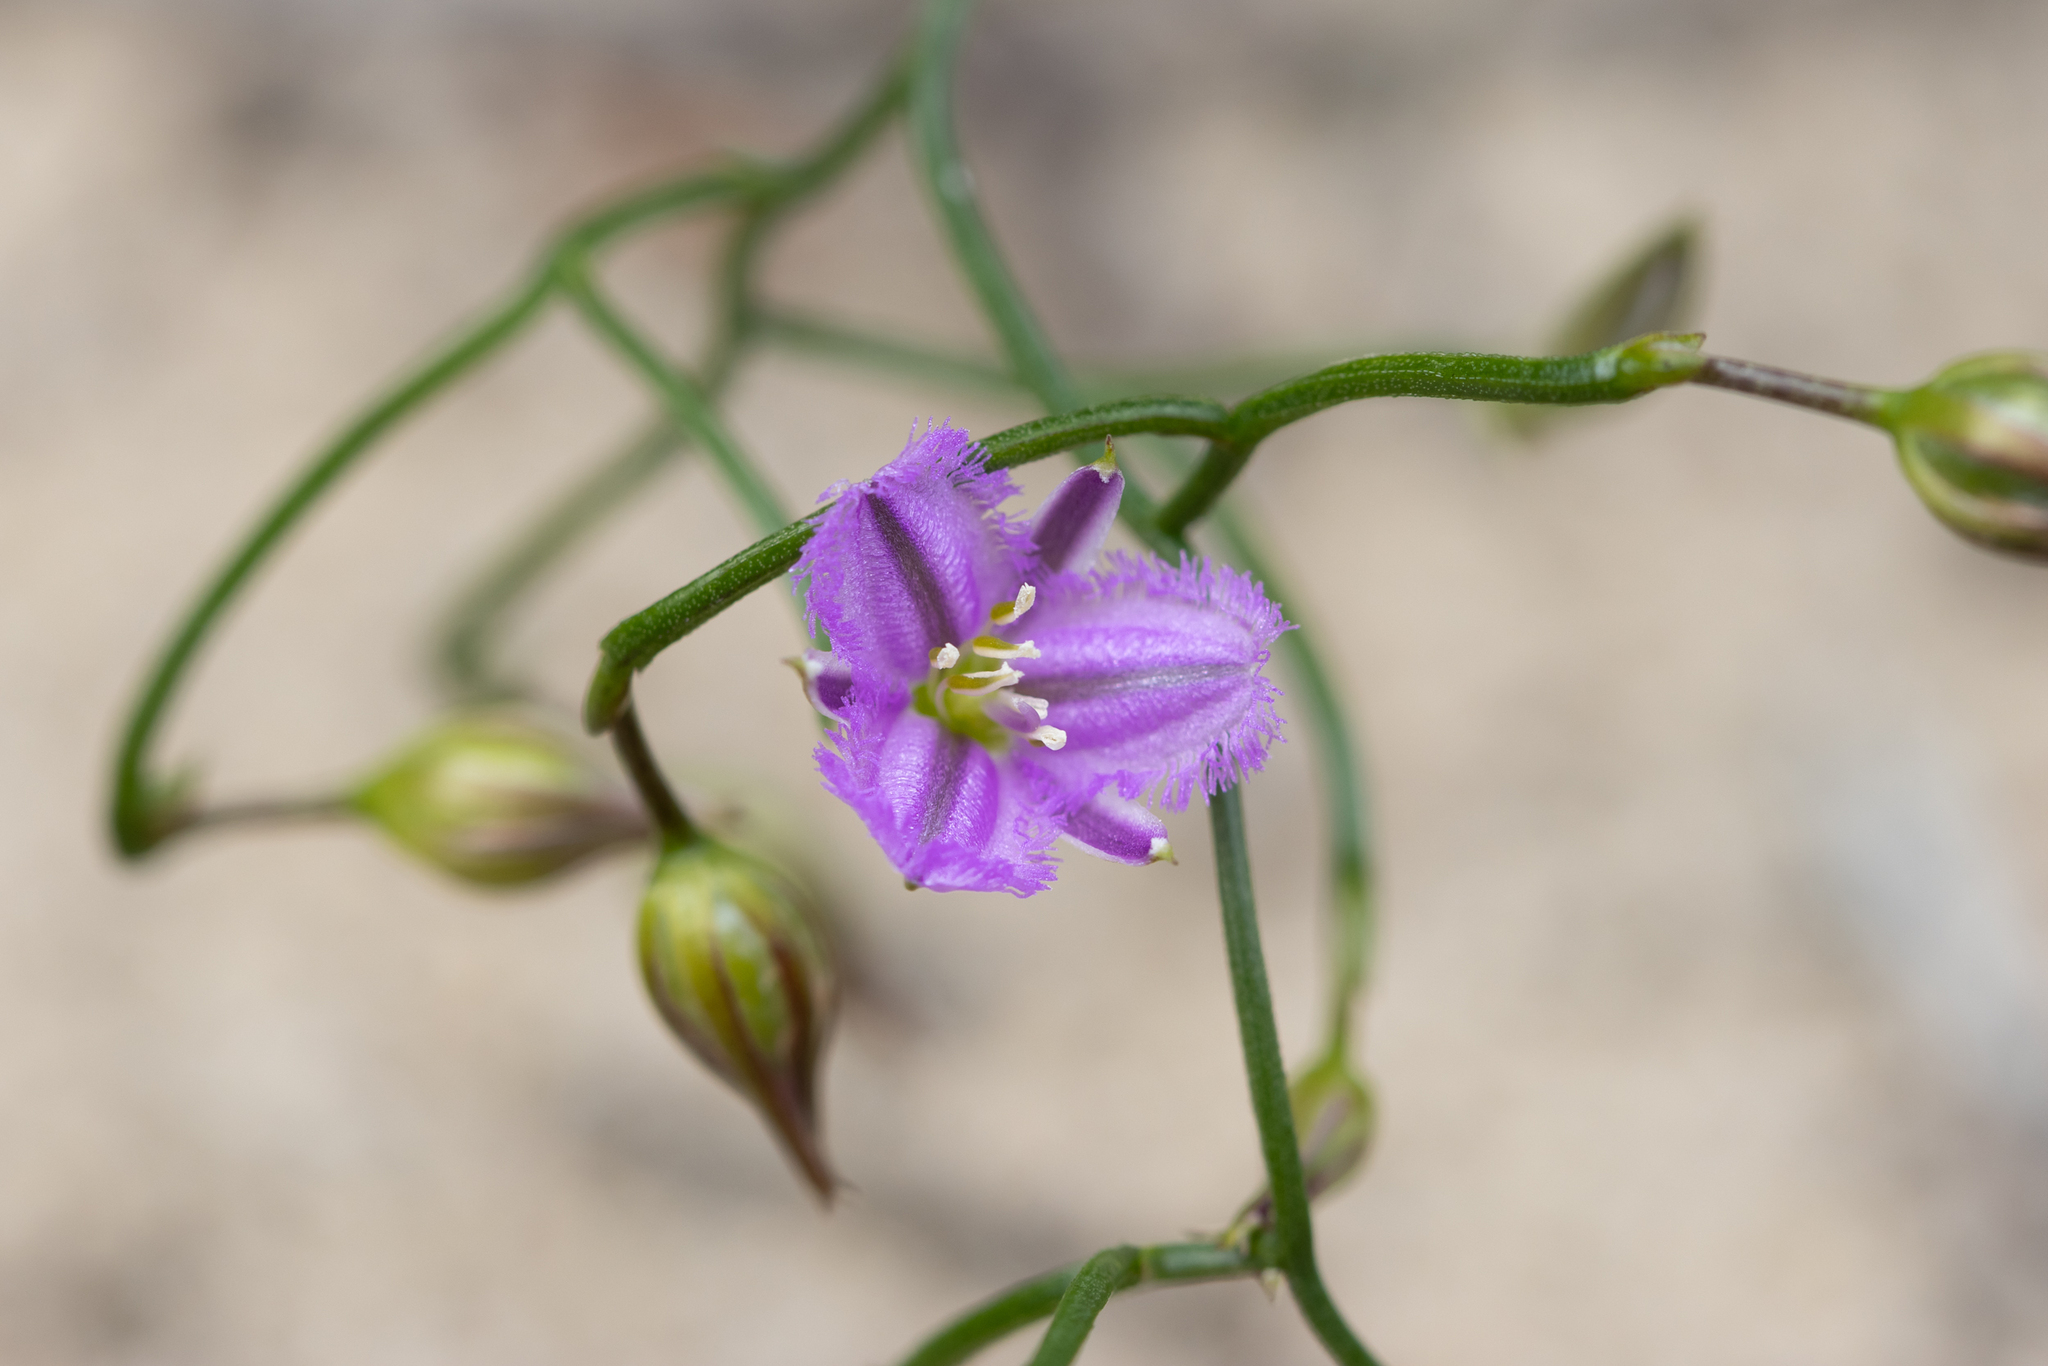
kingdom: Plantae
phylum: Tracheophyta
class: Liliopsida
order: Asparagales
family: Asparagaceae
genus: Thysanotus
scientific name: Thysanotus patersonii
